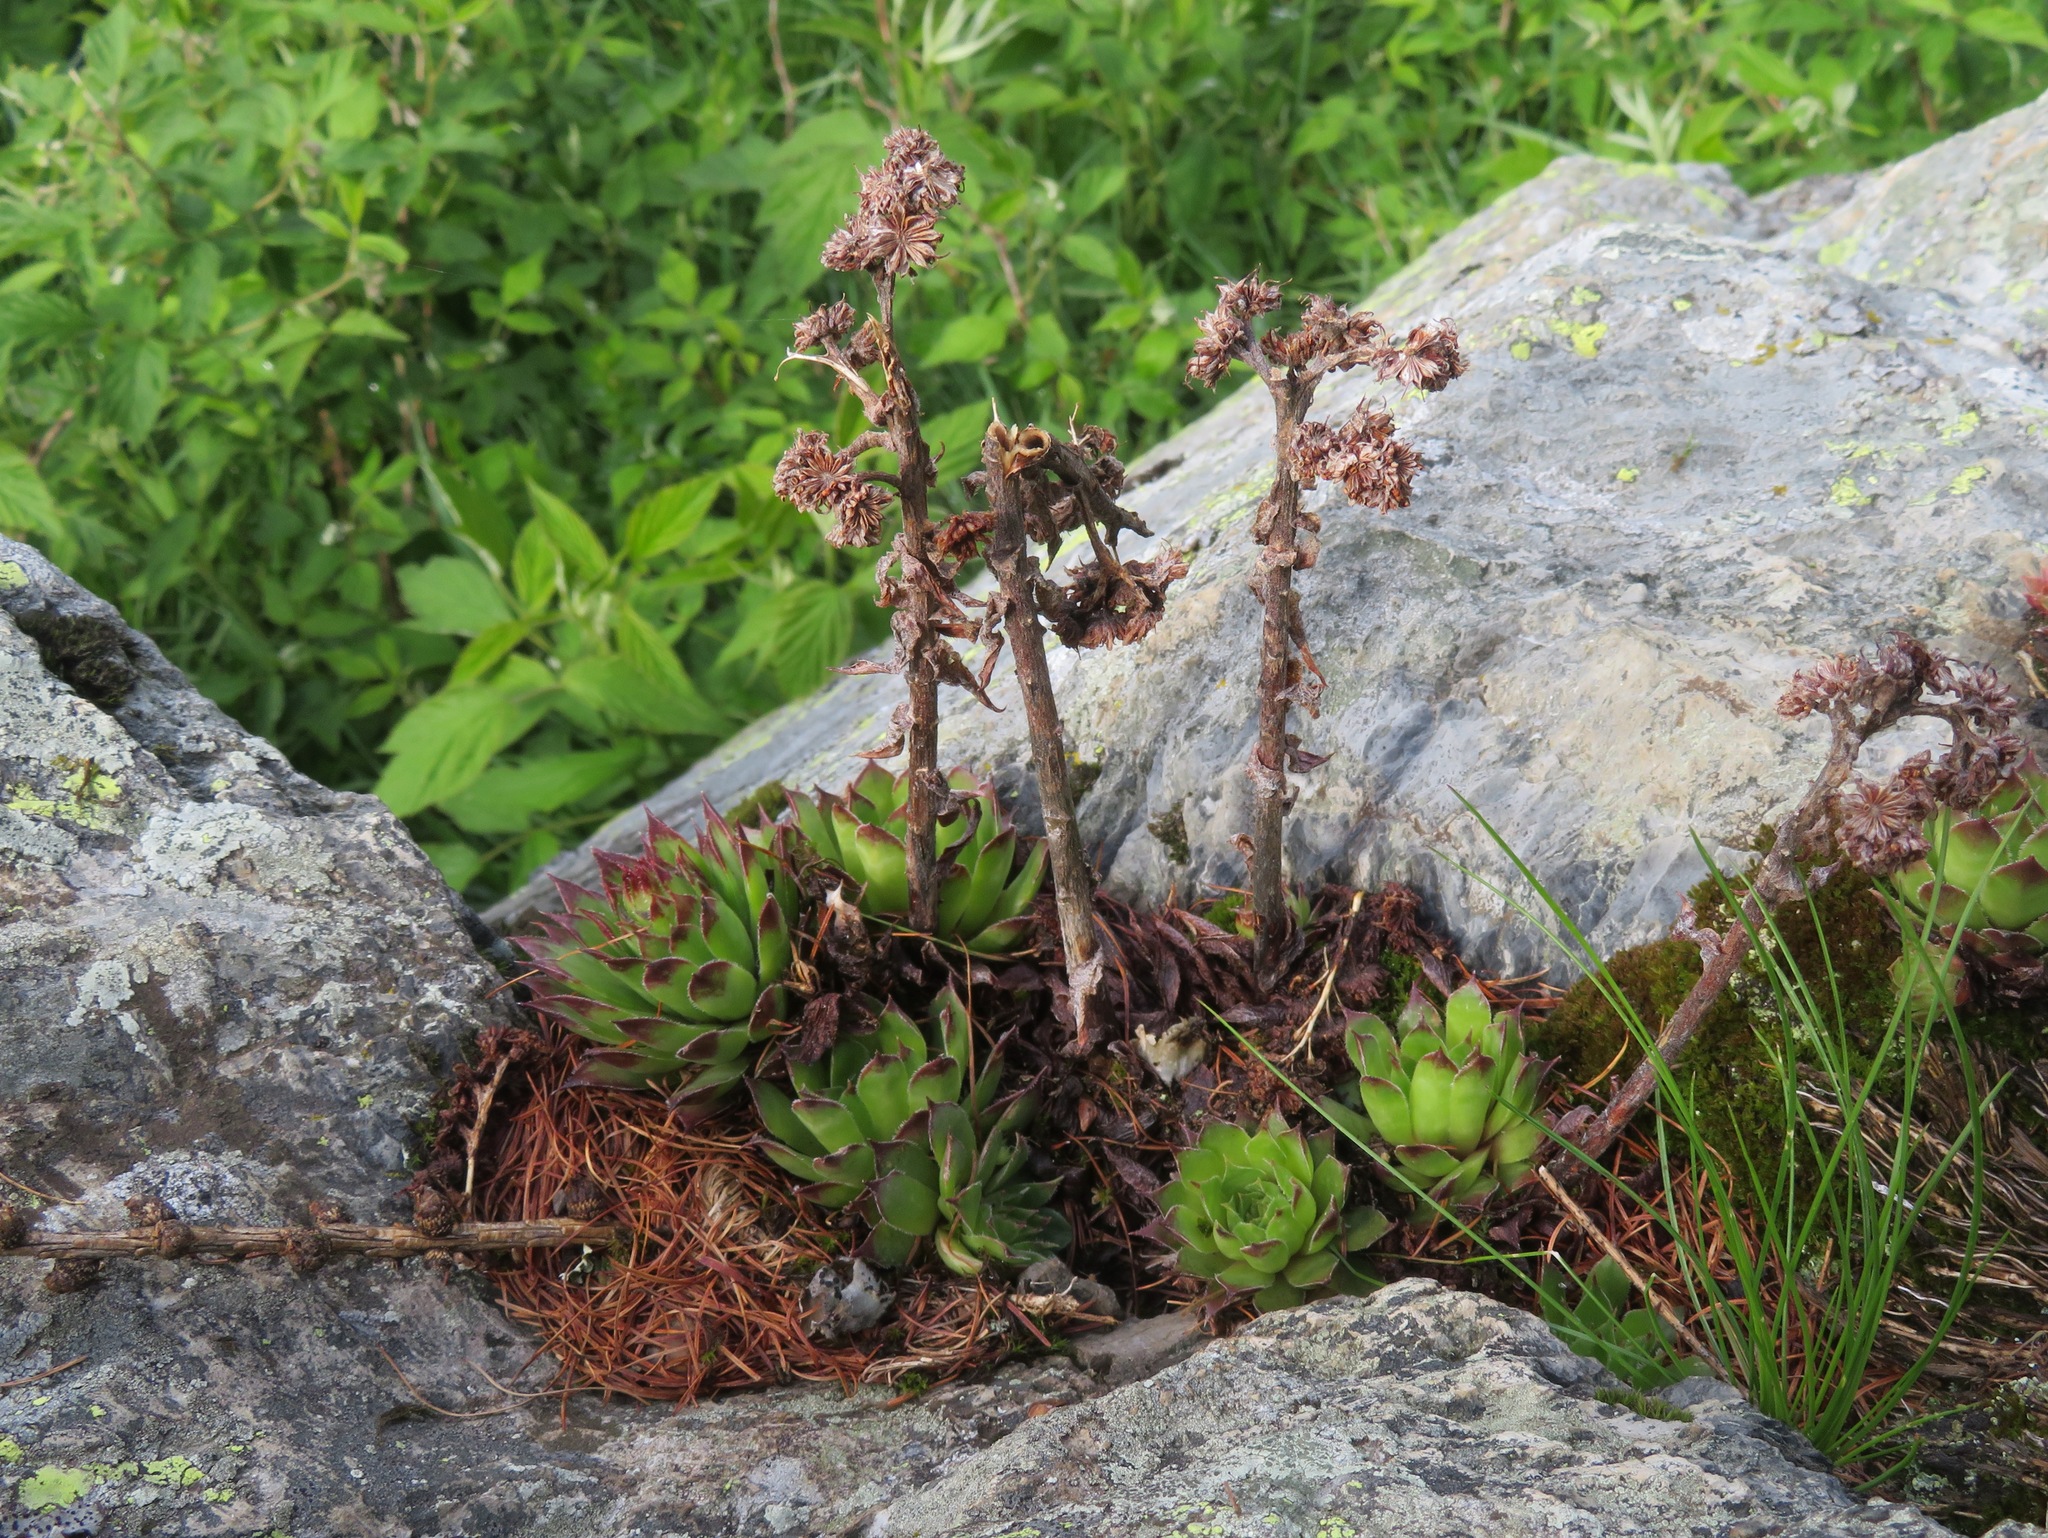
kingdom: Plantae
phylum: Tracheophyta
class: Magnoliopsida
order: Saxifragales
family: Crassulaceae
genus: Sempervivum
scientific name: Sempervivum tectorum
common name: House-leek
